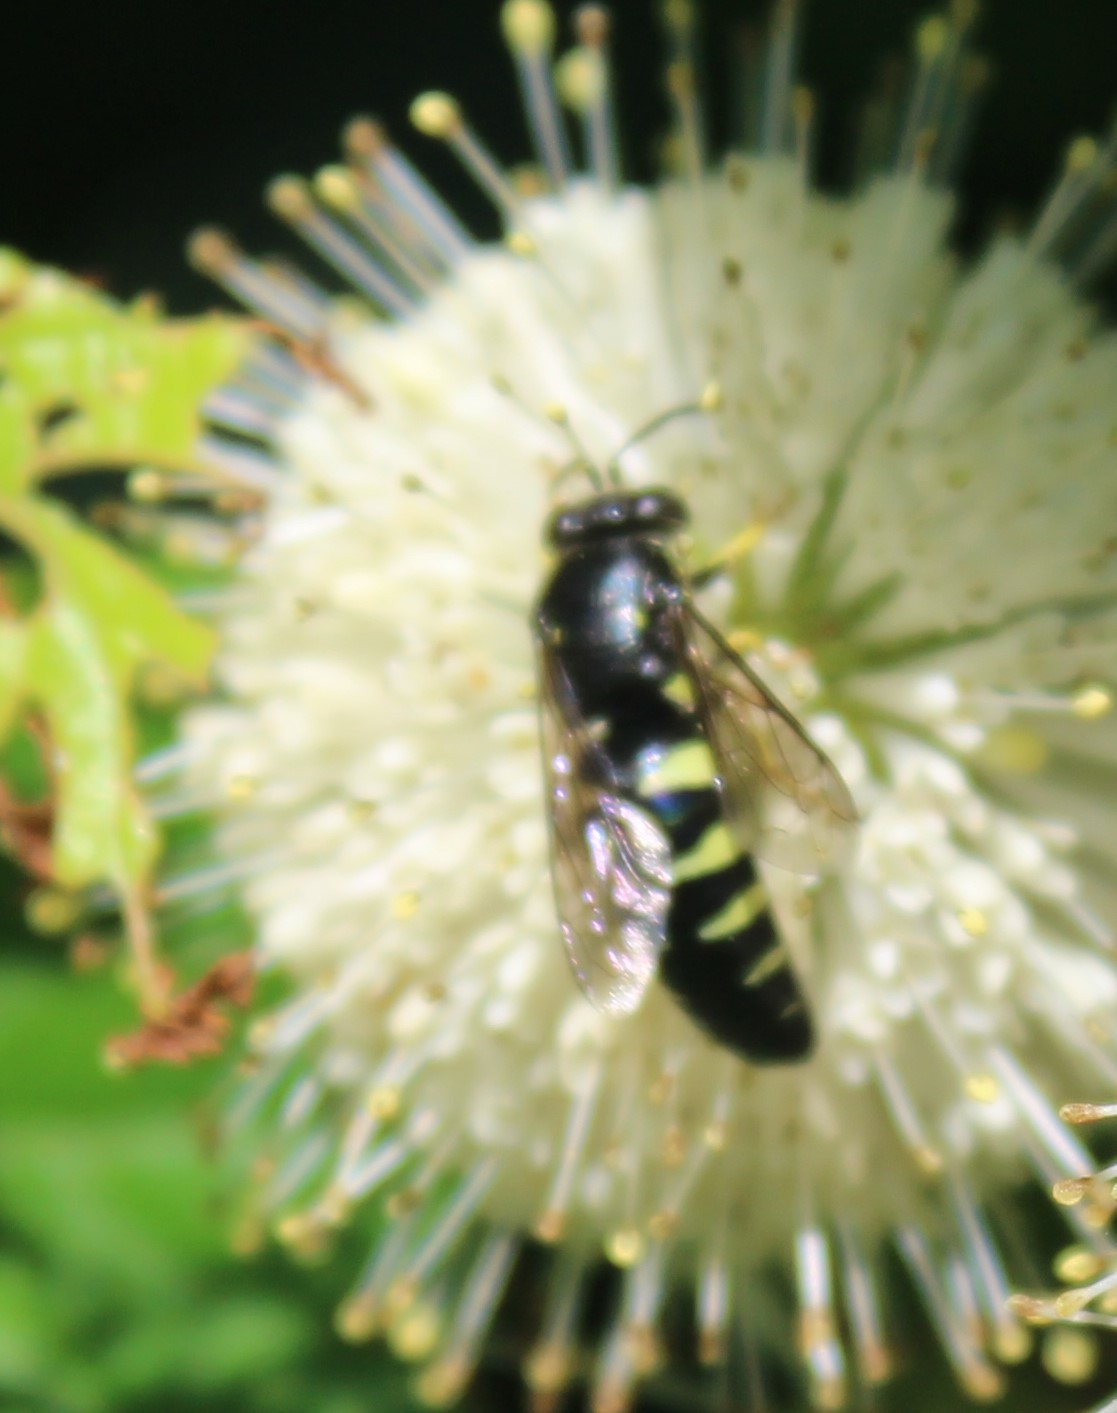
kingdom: Animalia
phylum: Arthropoda
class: Insecta
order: Hymenoptera
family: Crabronidae
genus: Bicyrtes
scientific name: Bicyrtes quadrifasciatus
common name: Four-banded stink bug hunter wasp
